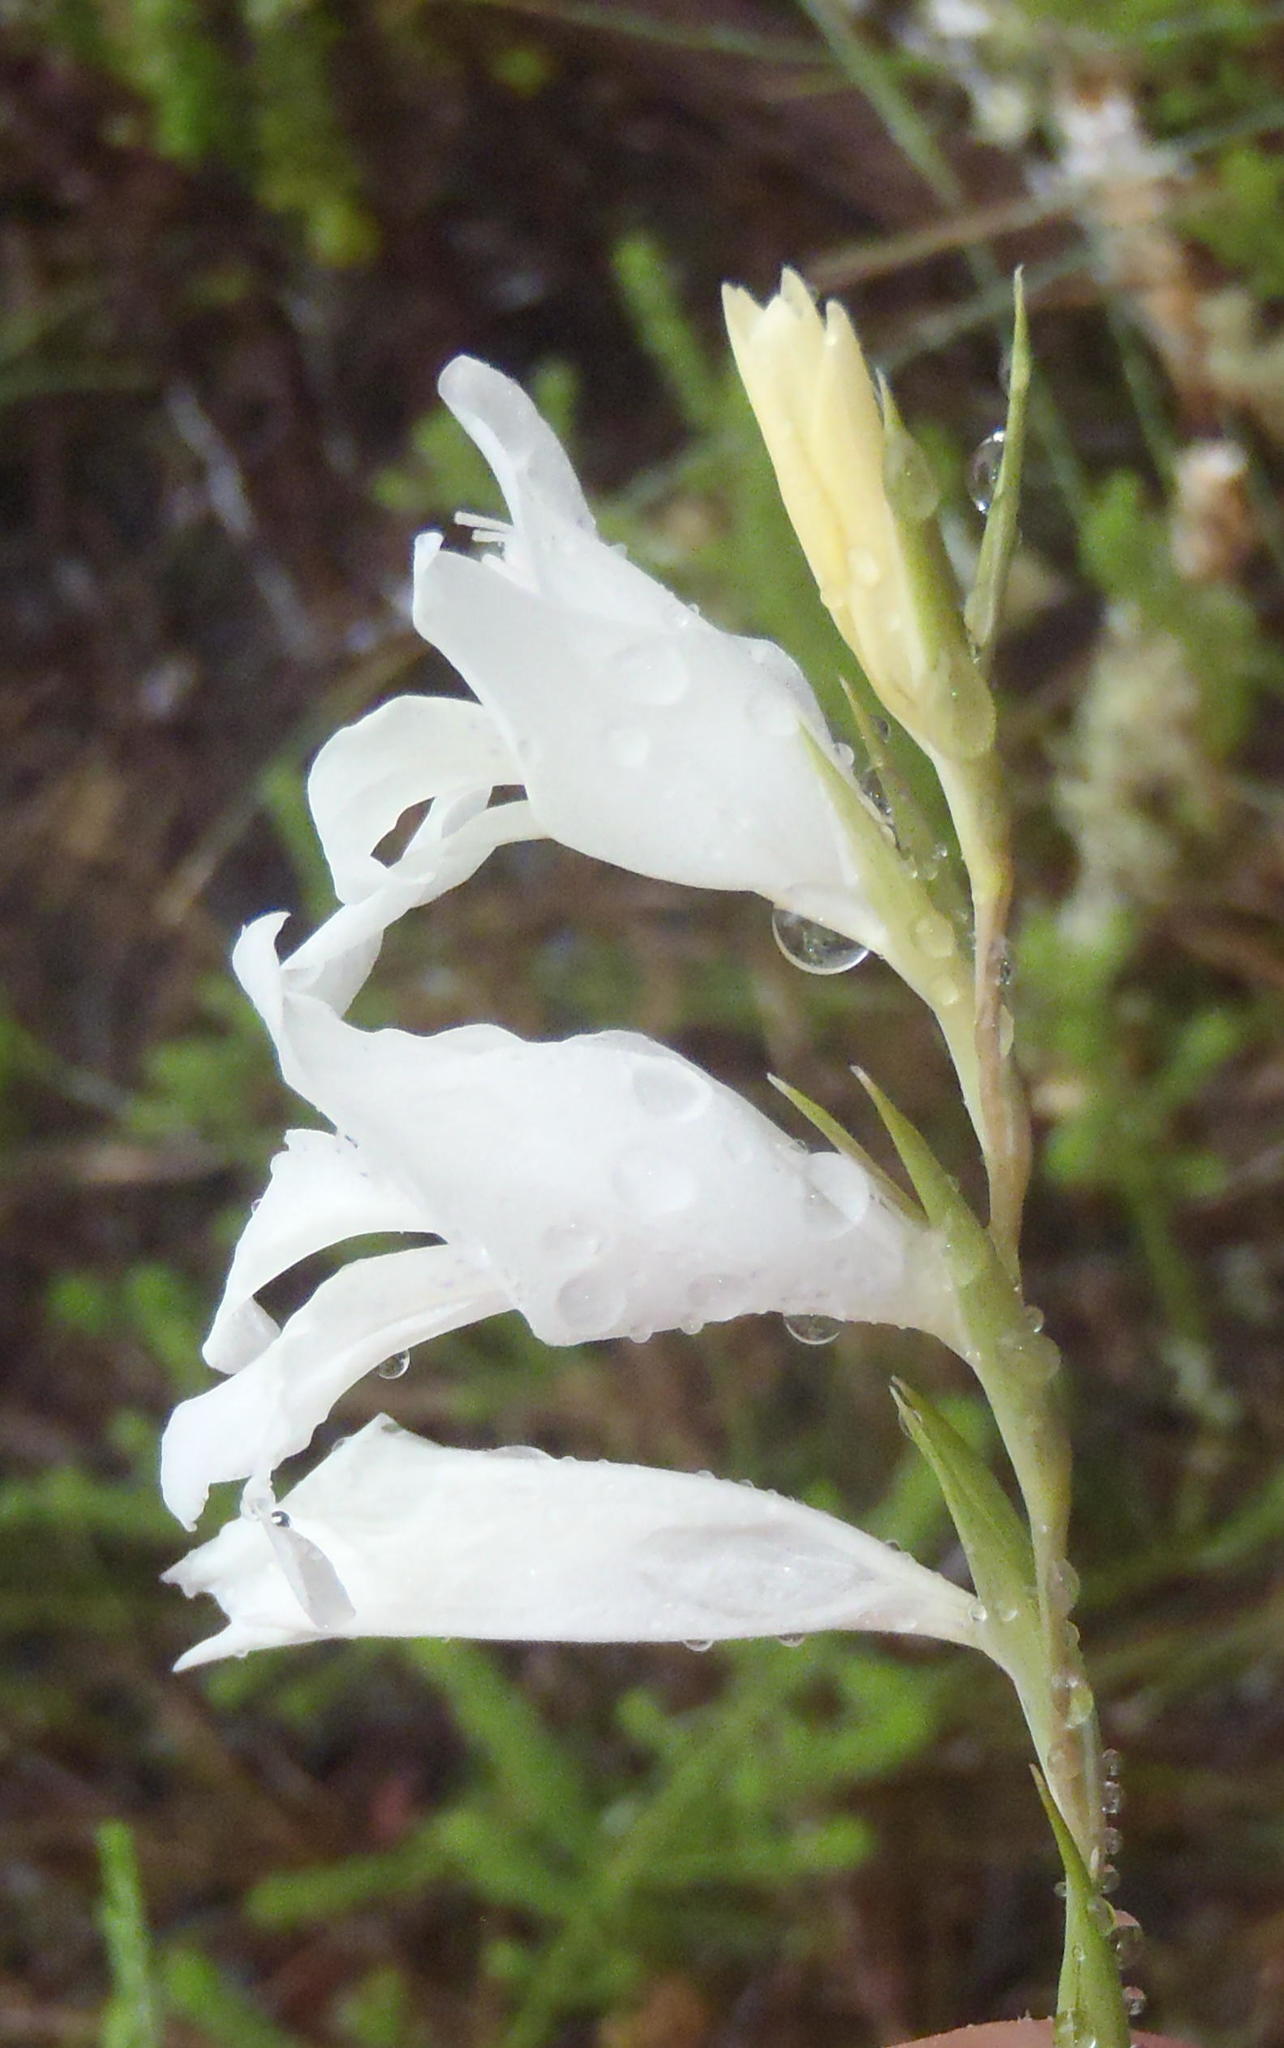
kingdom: Plantae
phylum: Tracheophyta
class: Liliopsida
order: Asparagales
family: Iridaceae
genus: Gladiolus
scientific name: Gladiolus vaginatus
